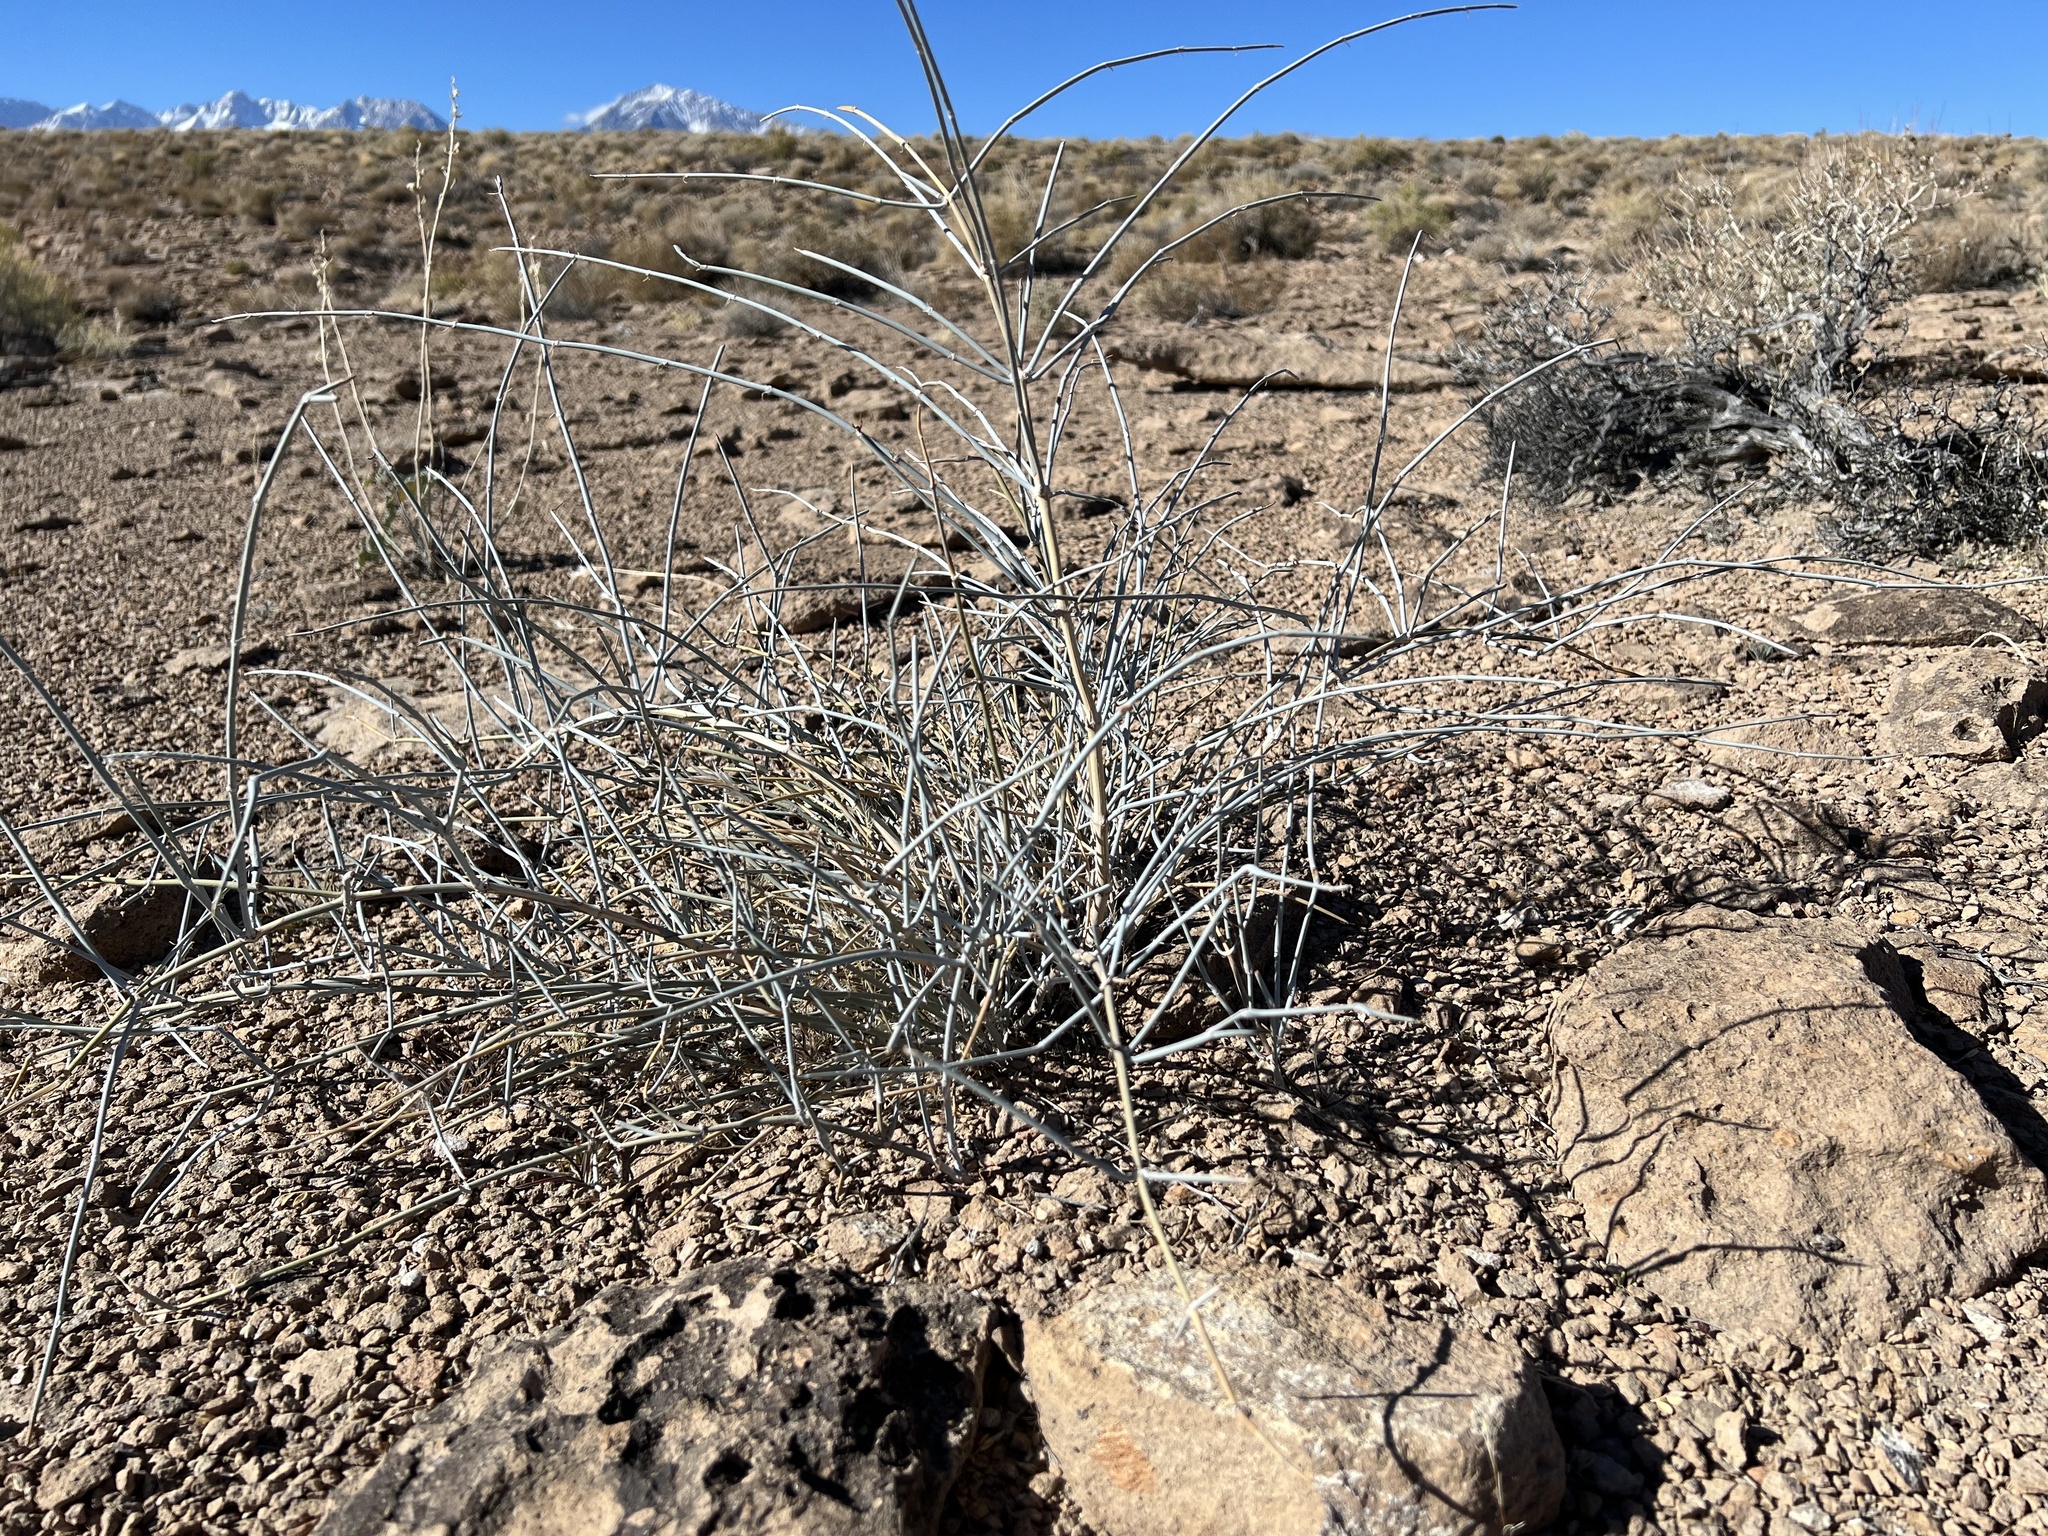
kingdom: Plantae
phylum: Tracheophyta
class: Gnetopsida
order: Ephedrales
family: Ephedraceae
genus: Ephedra
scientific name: Ephedra nevadensis
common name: Gray ephedra
